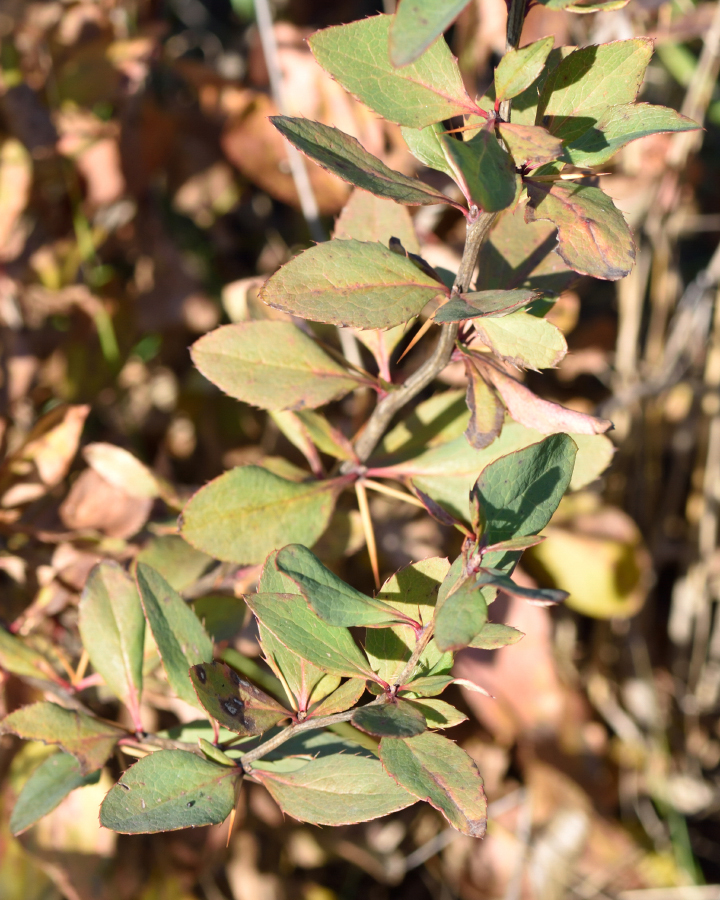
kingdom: Plantae
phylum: Tracheophyta
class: Magnoliopsida
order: Ranunculales
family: Berberidaceae
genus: Berberis
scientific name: Berberis vulgaris
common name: Barberry
